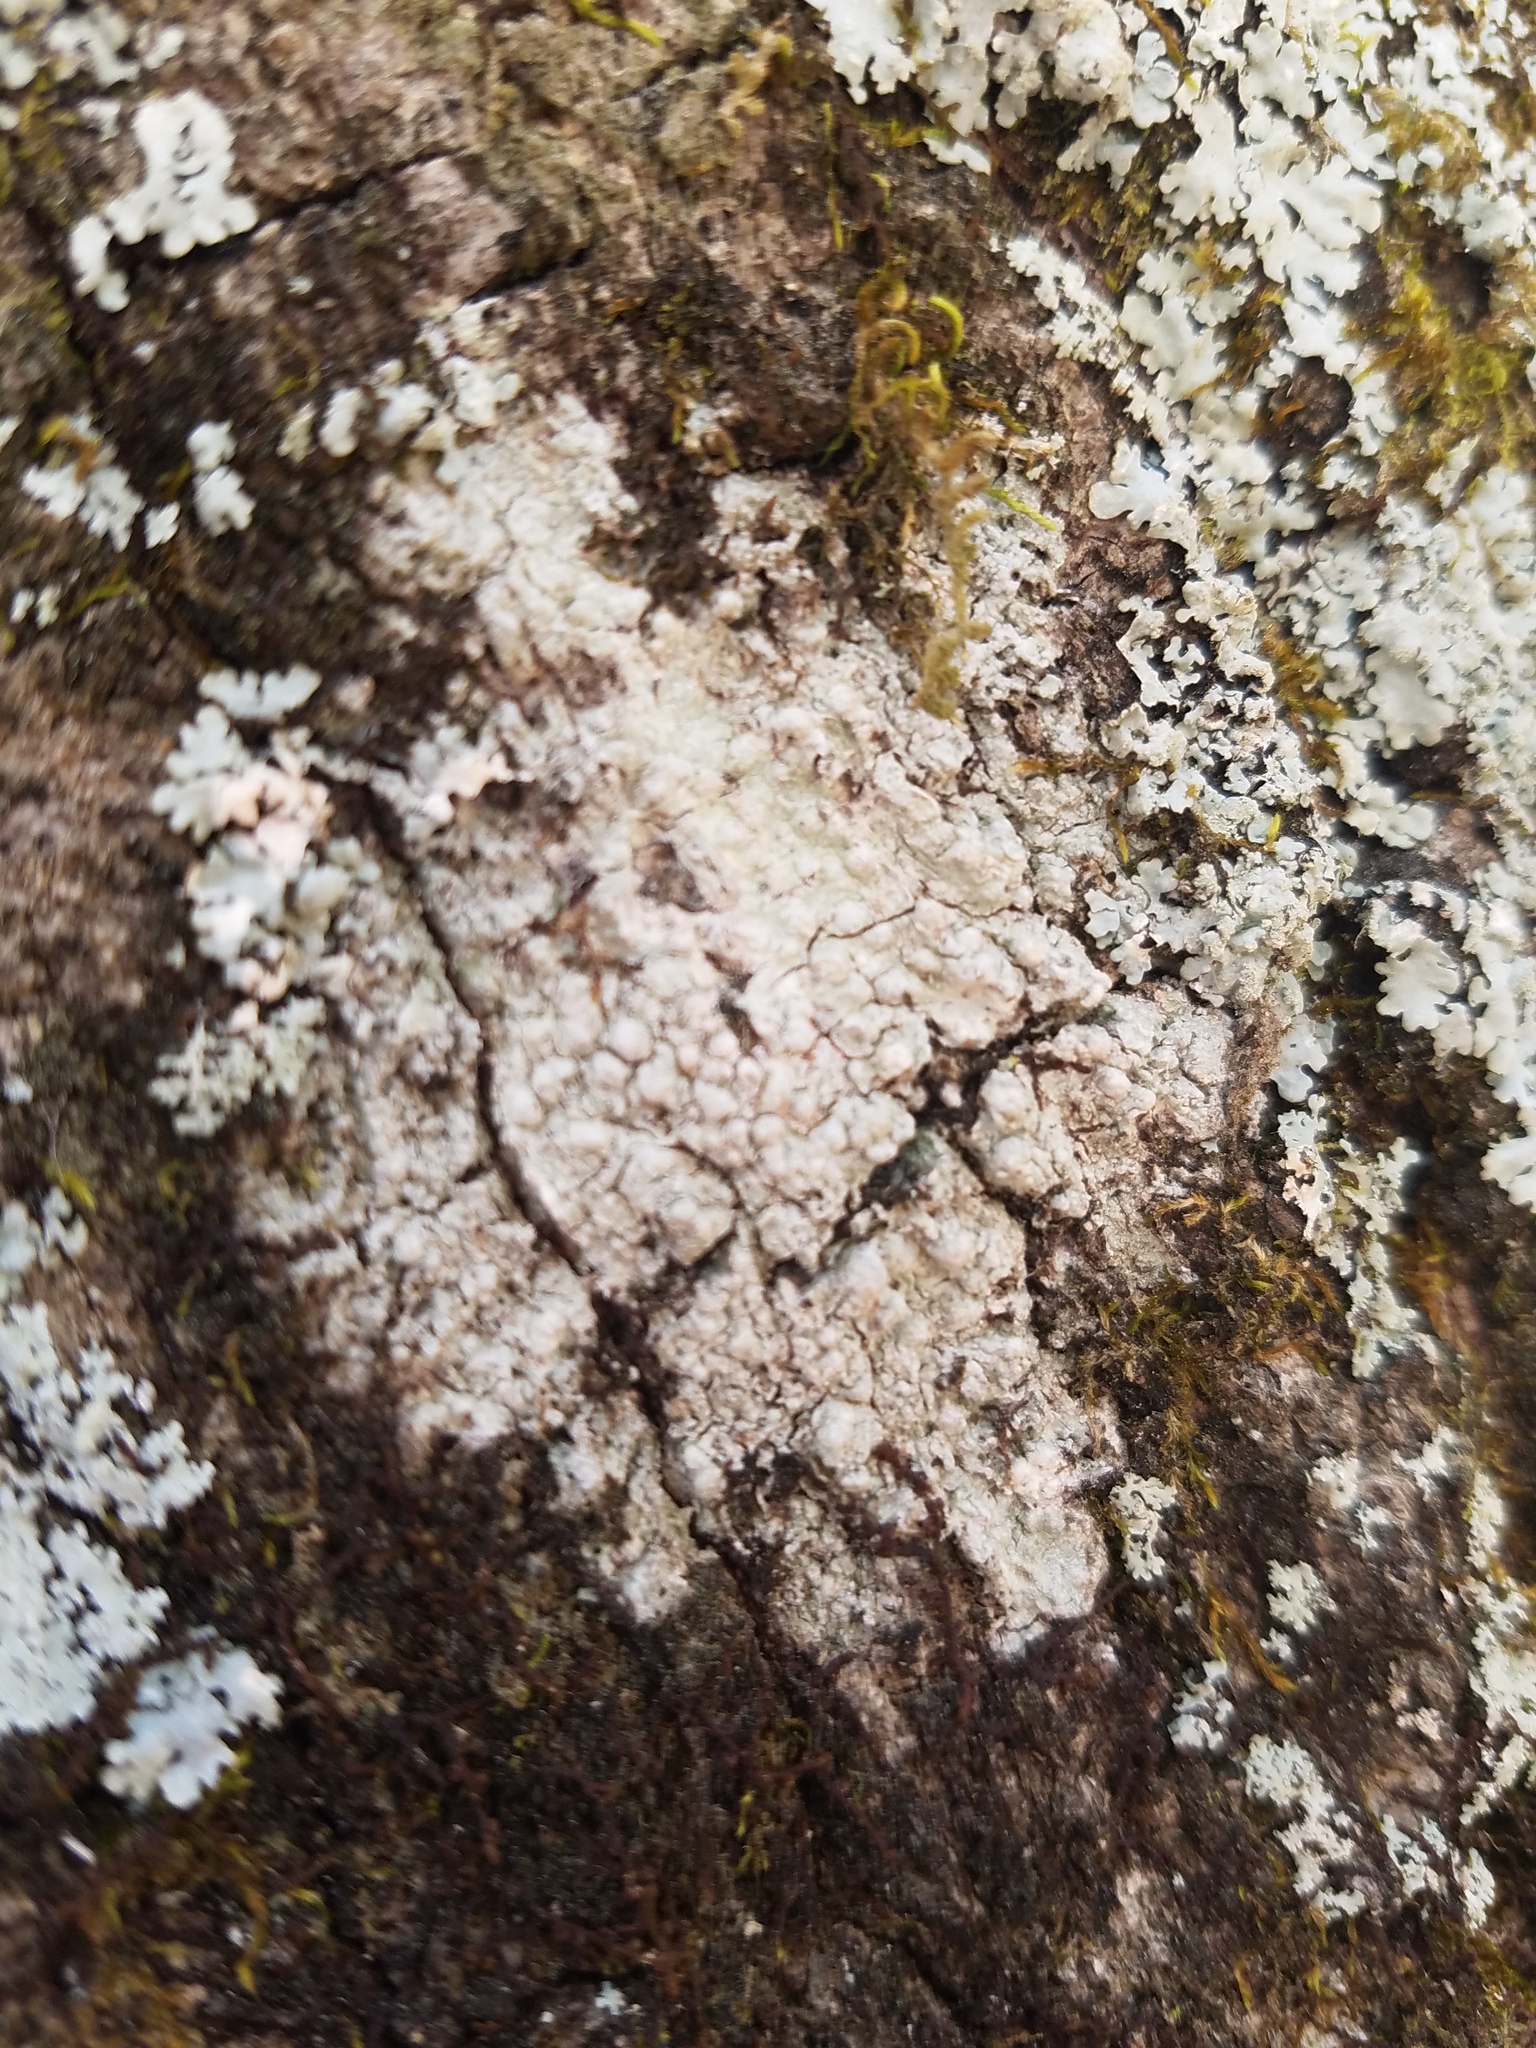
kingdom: Fungi
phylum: Ascomycota
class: Lecanoromycetes
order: Pertusariales
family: Pertusariaceae
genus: Pertusaria
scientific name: Pertusaria paratuberculifera
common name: Spotted wart lichen
